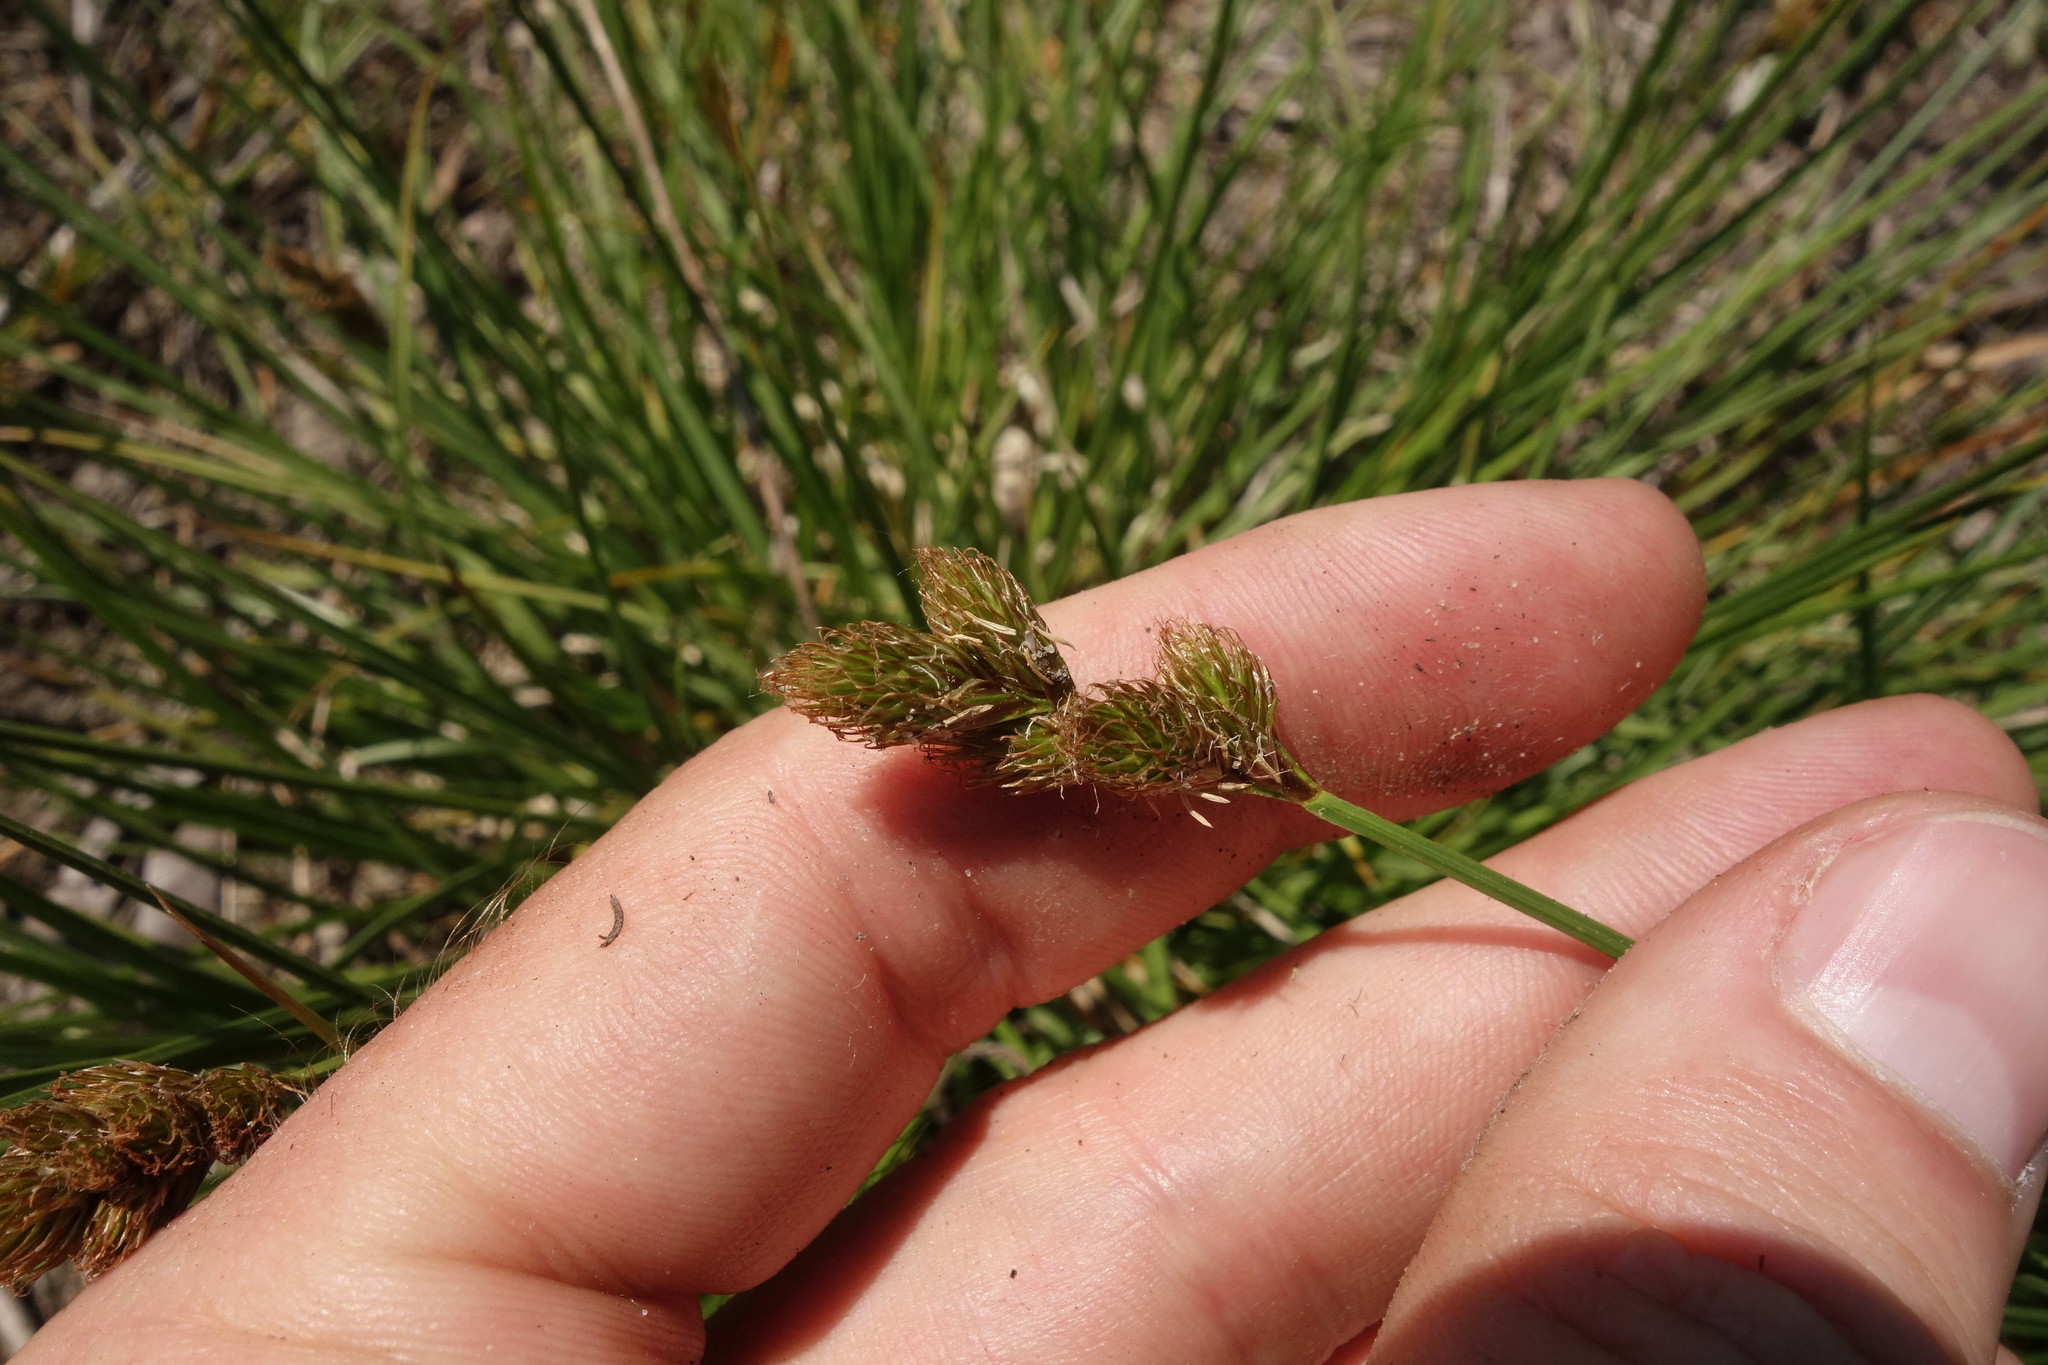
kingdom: Plantae
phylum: Tracheophyta
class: Liliopsida
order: Poales
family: Cyperaceae
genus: Carex
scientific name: Carex leporina
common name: Oval sedge
